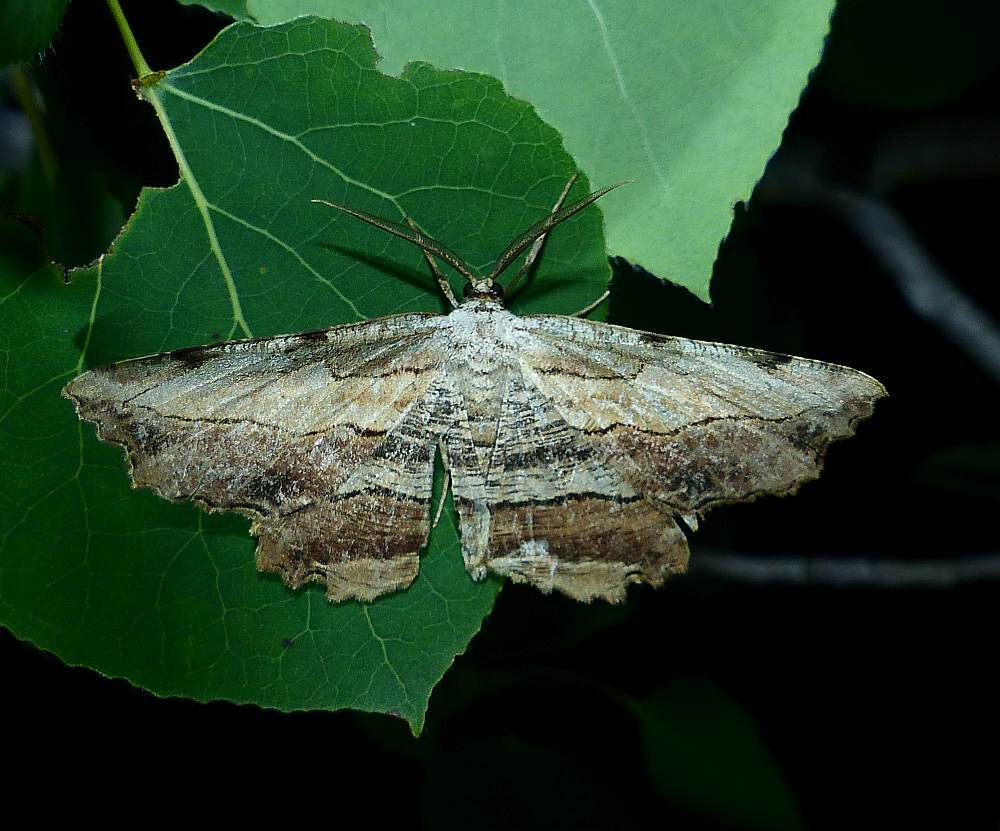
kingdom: Animalia
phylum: Arthropoda
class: Insecta
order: Lepidoptera
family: Geometridae
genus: Lytrosis
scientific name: Lytrosis unitaria
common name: Common lytrosis
